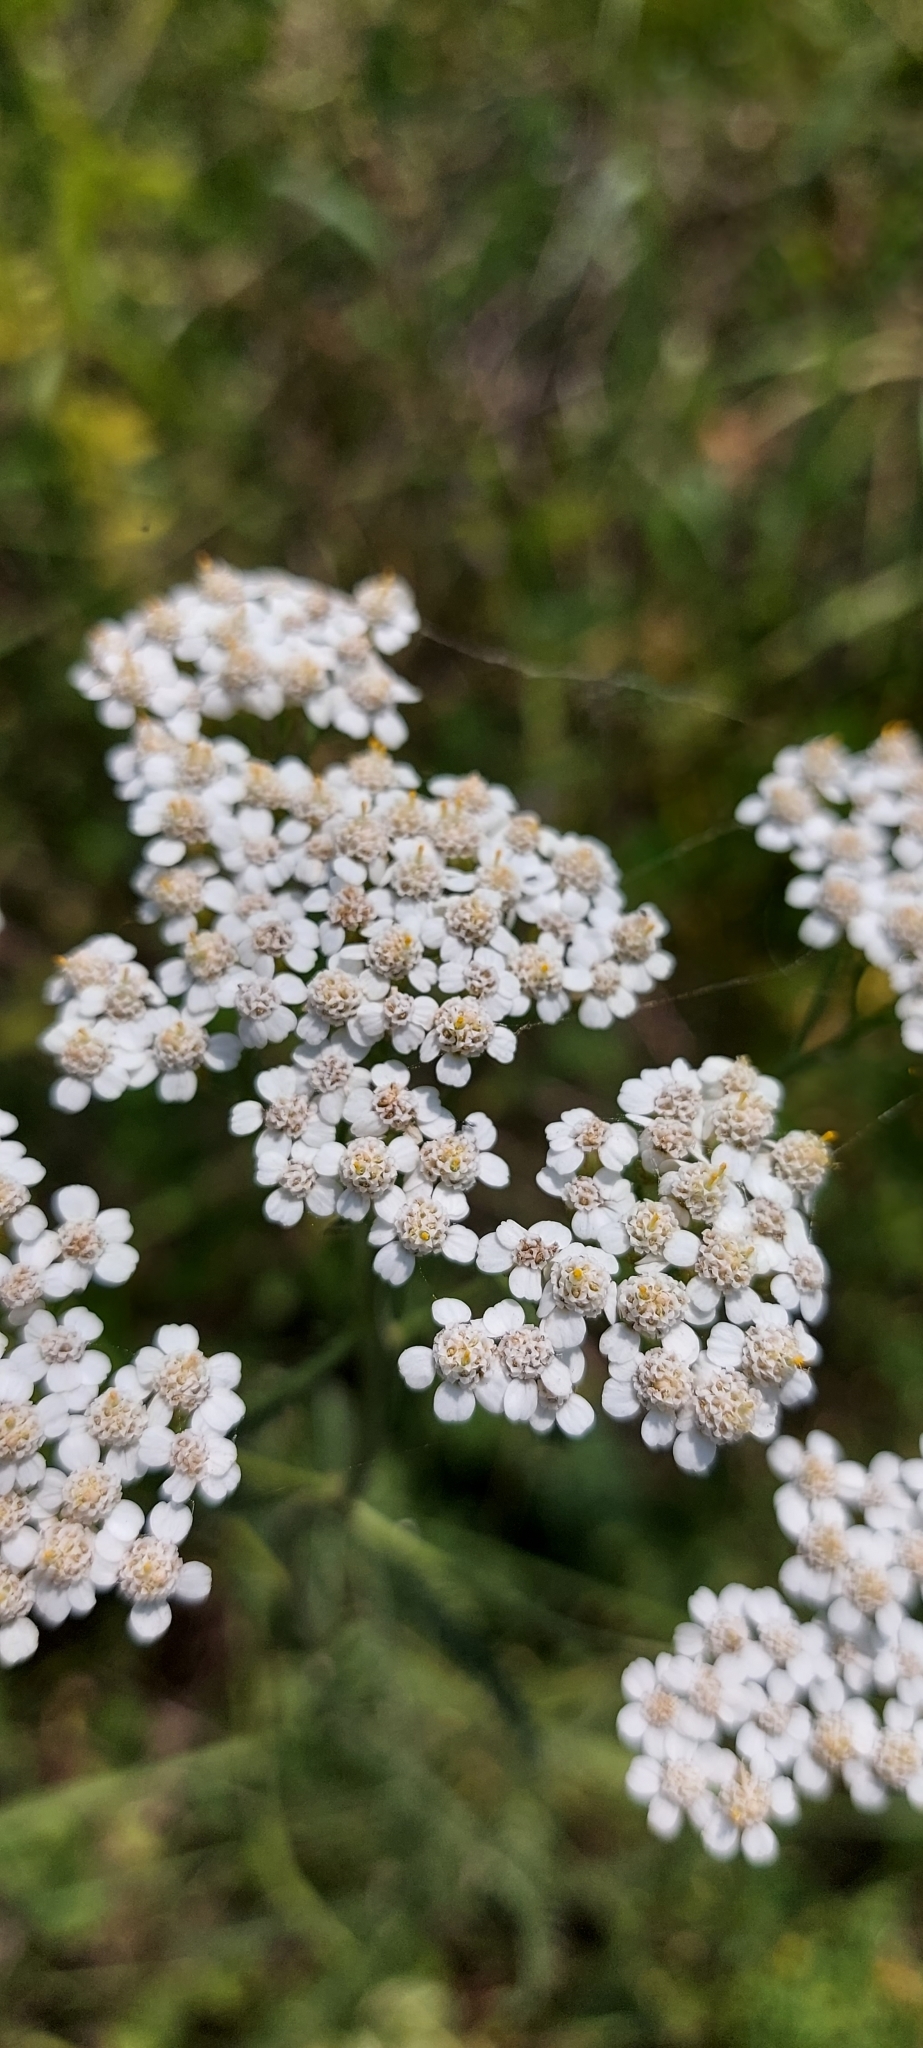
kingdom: Plantae
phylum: Tracheophyta
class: Magnoliopsida
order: Asterales
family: Asteraceae
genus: Achillea
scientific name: Achillea millefolium
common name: Yarrow
